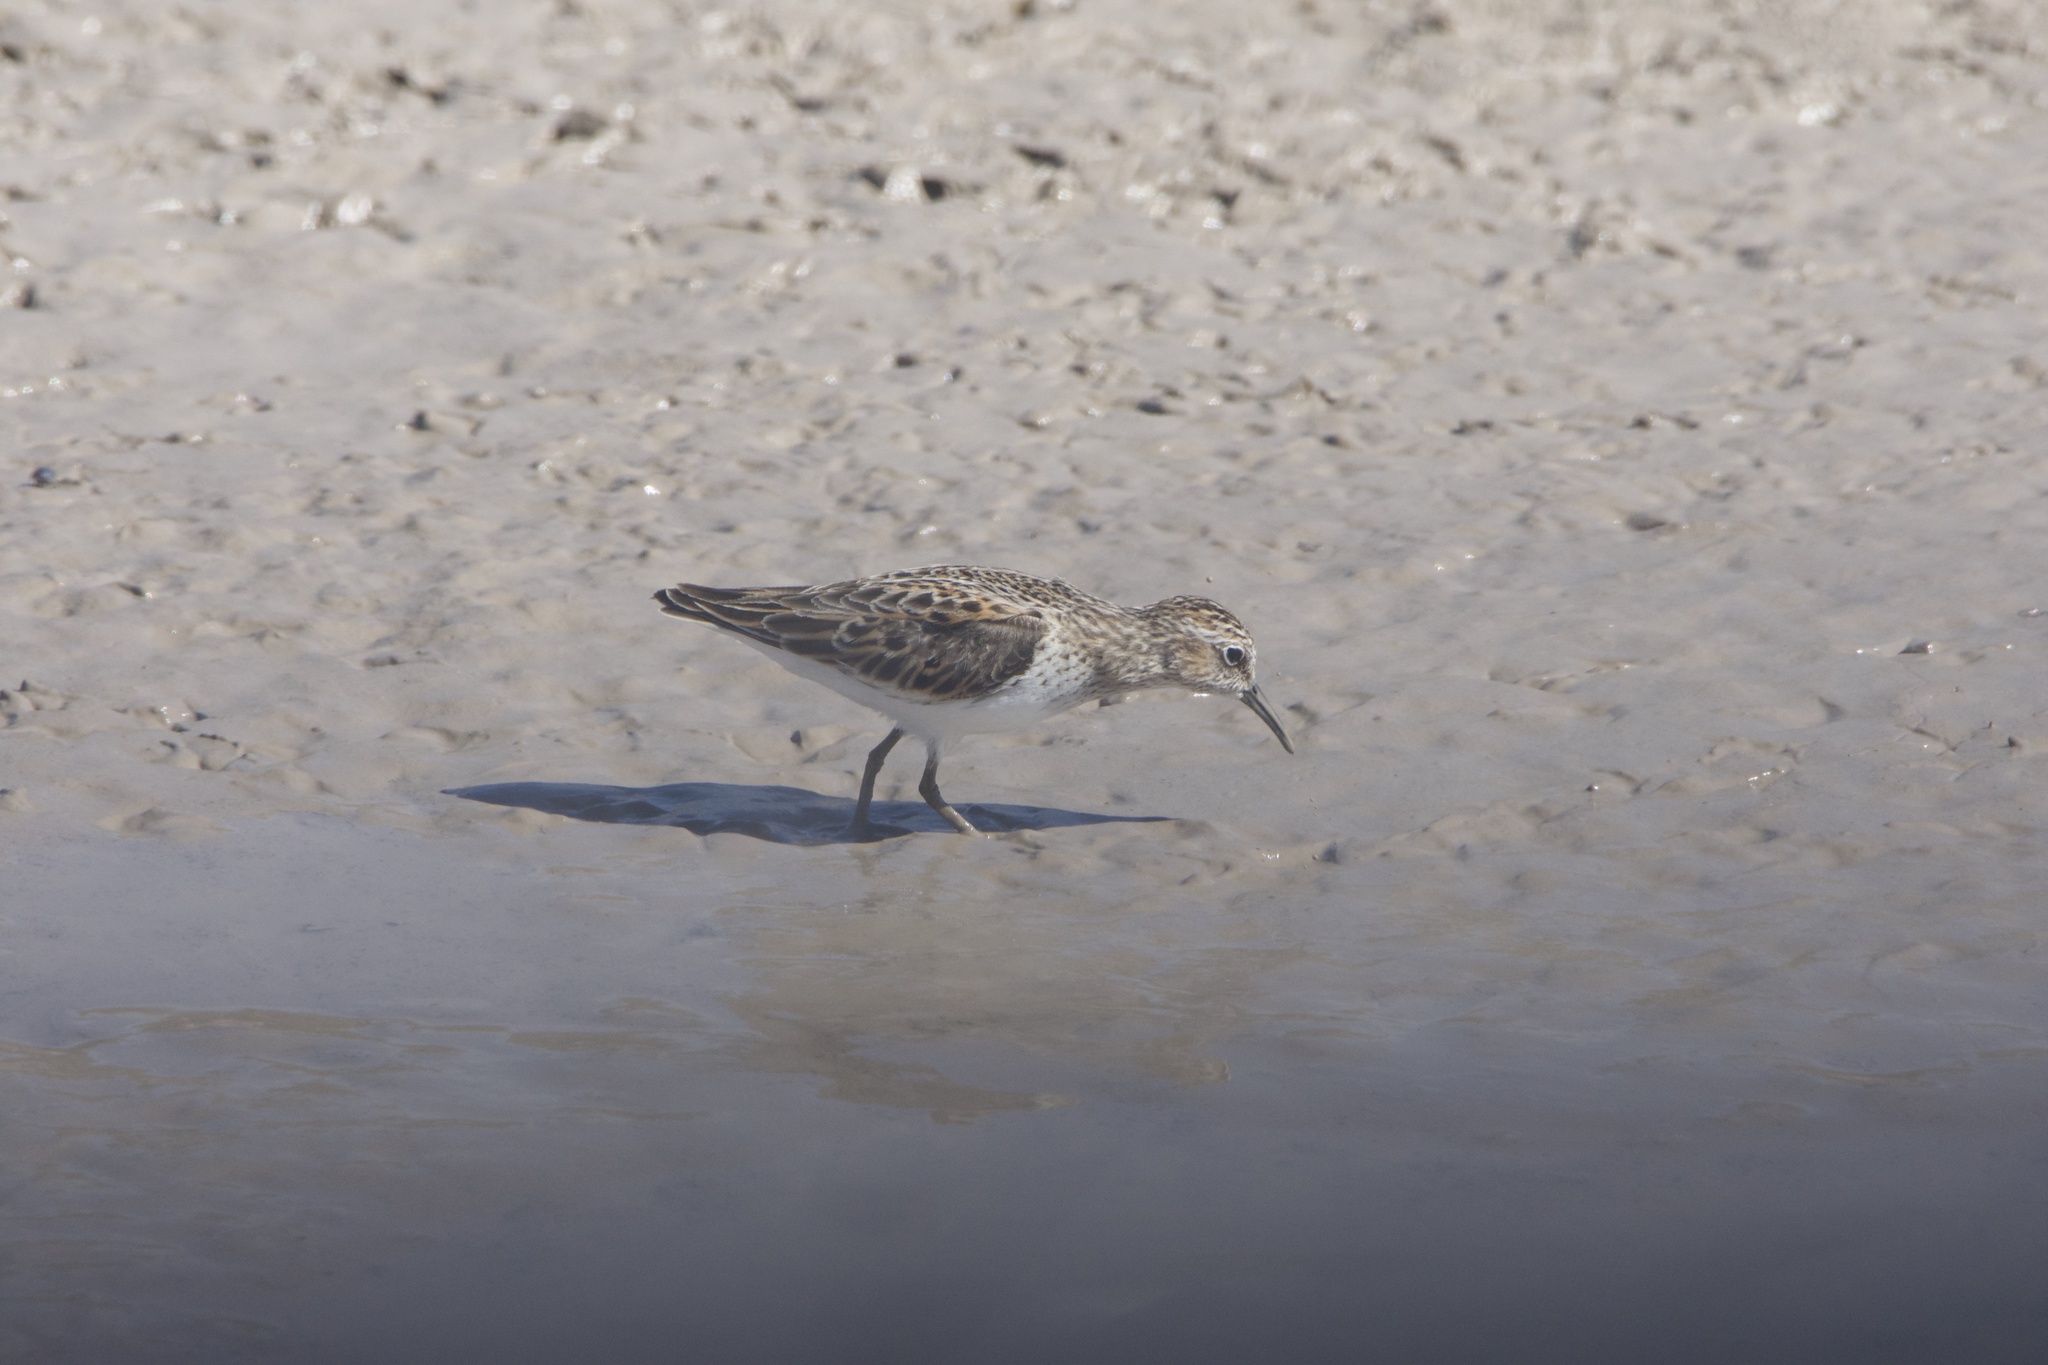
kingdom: Animalia
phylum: Chordata
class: Aves
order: Charadriiformes
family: Scolopacidae
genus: Calidris
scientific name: Calidris minutilla
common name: Least sandpiper
